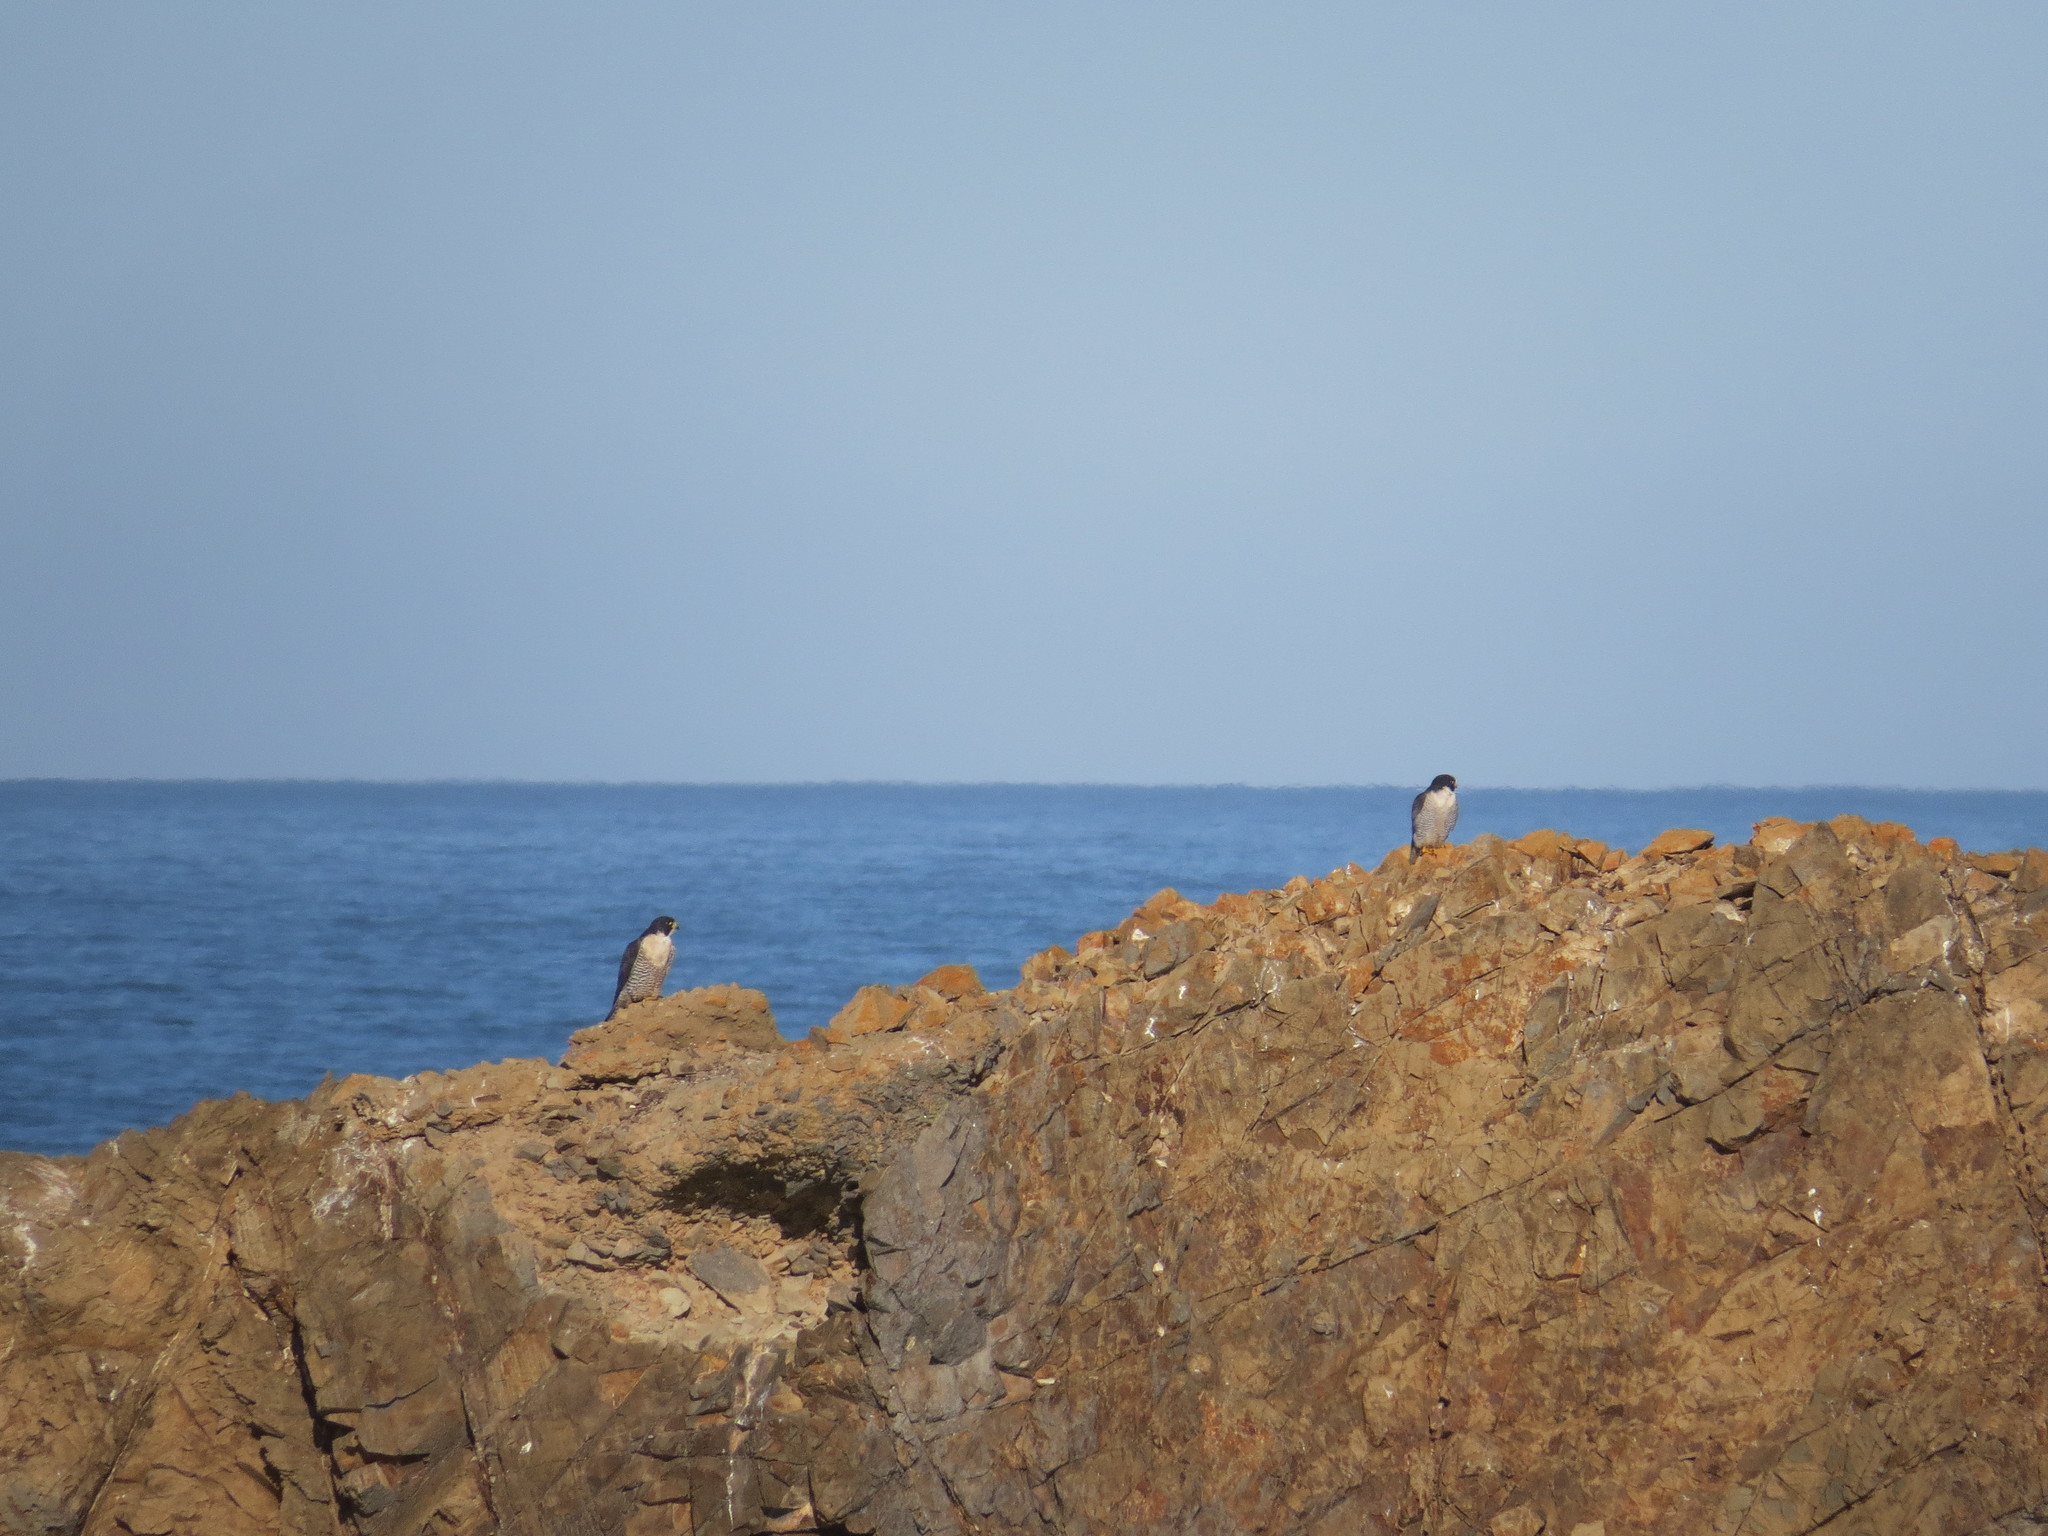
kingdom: Animalia
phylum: Chordata
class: Aves
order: Falconiformes
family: Falconidae
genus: Falco
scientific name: Falco peregrinus
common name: Peregrine falcon
